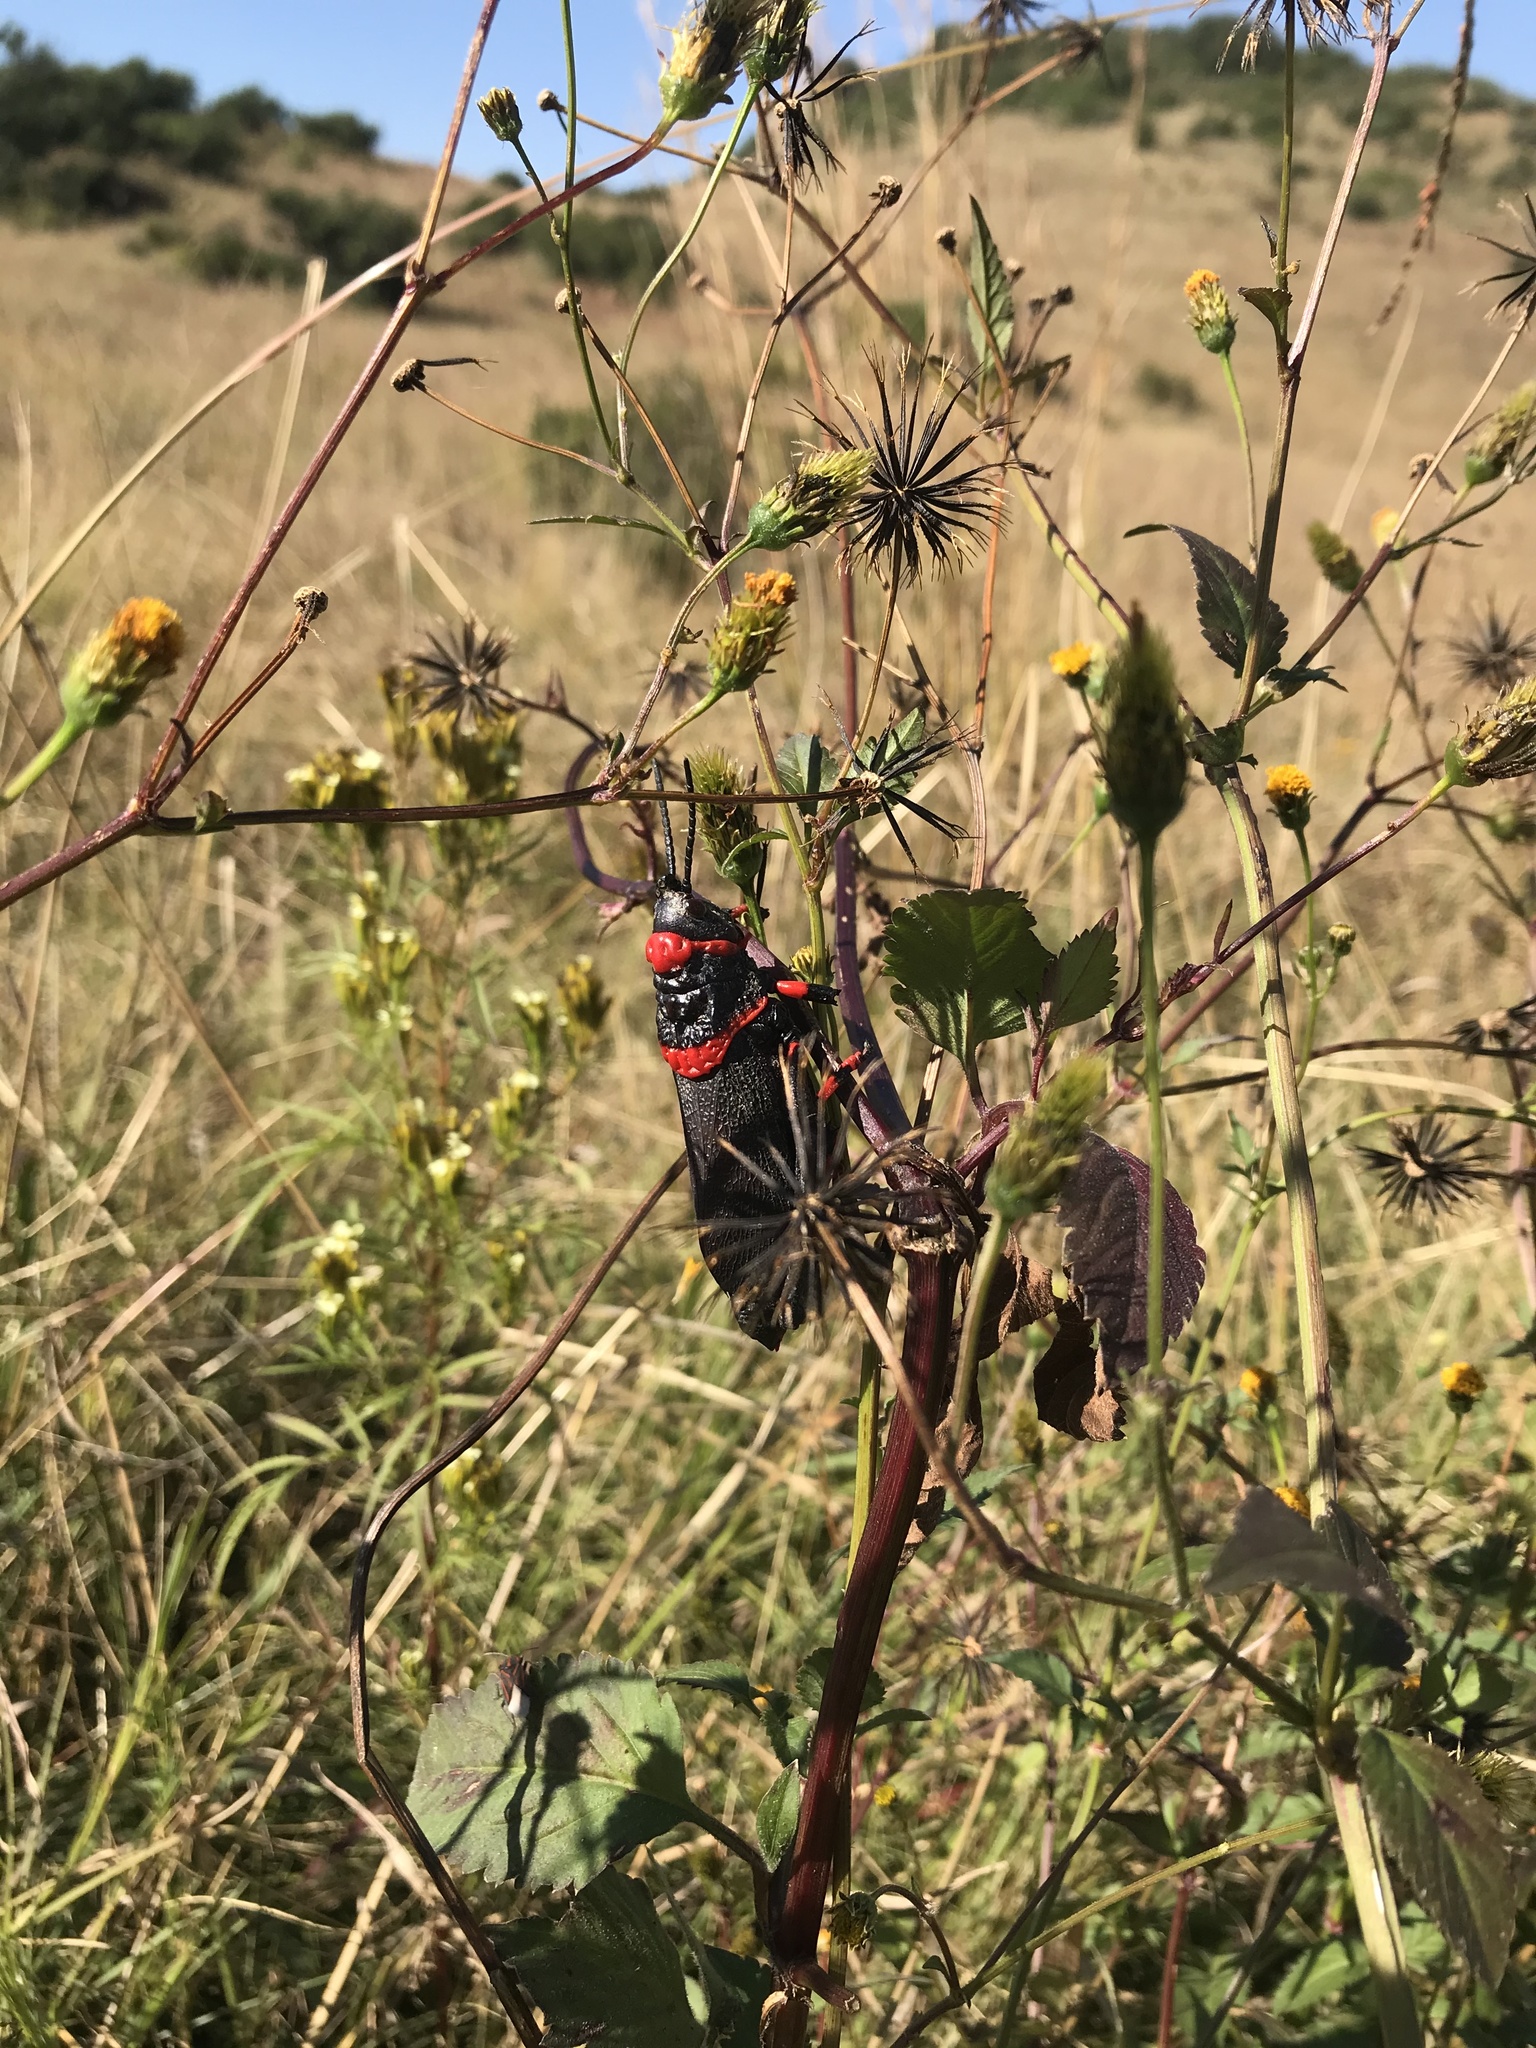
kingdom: Animalia
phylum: Arthropoda
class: Insecta
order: Orthoptera
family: Pyrgomorphidae
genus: Dictyophorus
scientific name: Dictyophorus spumans
